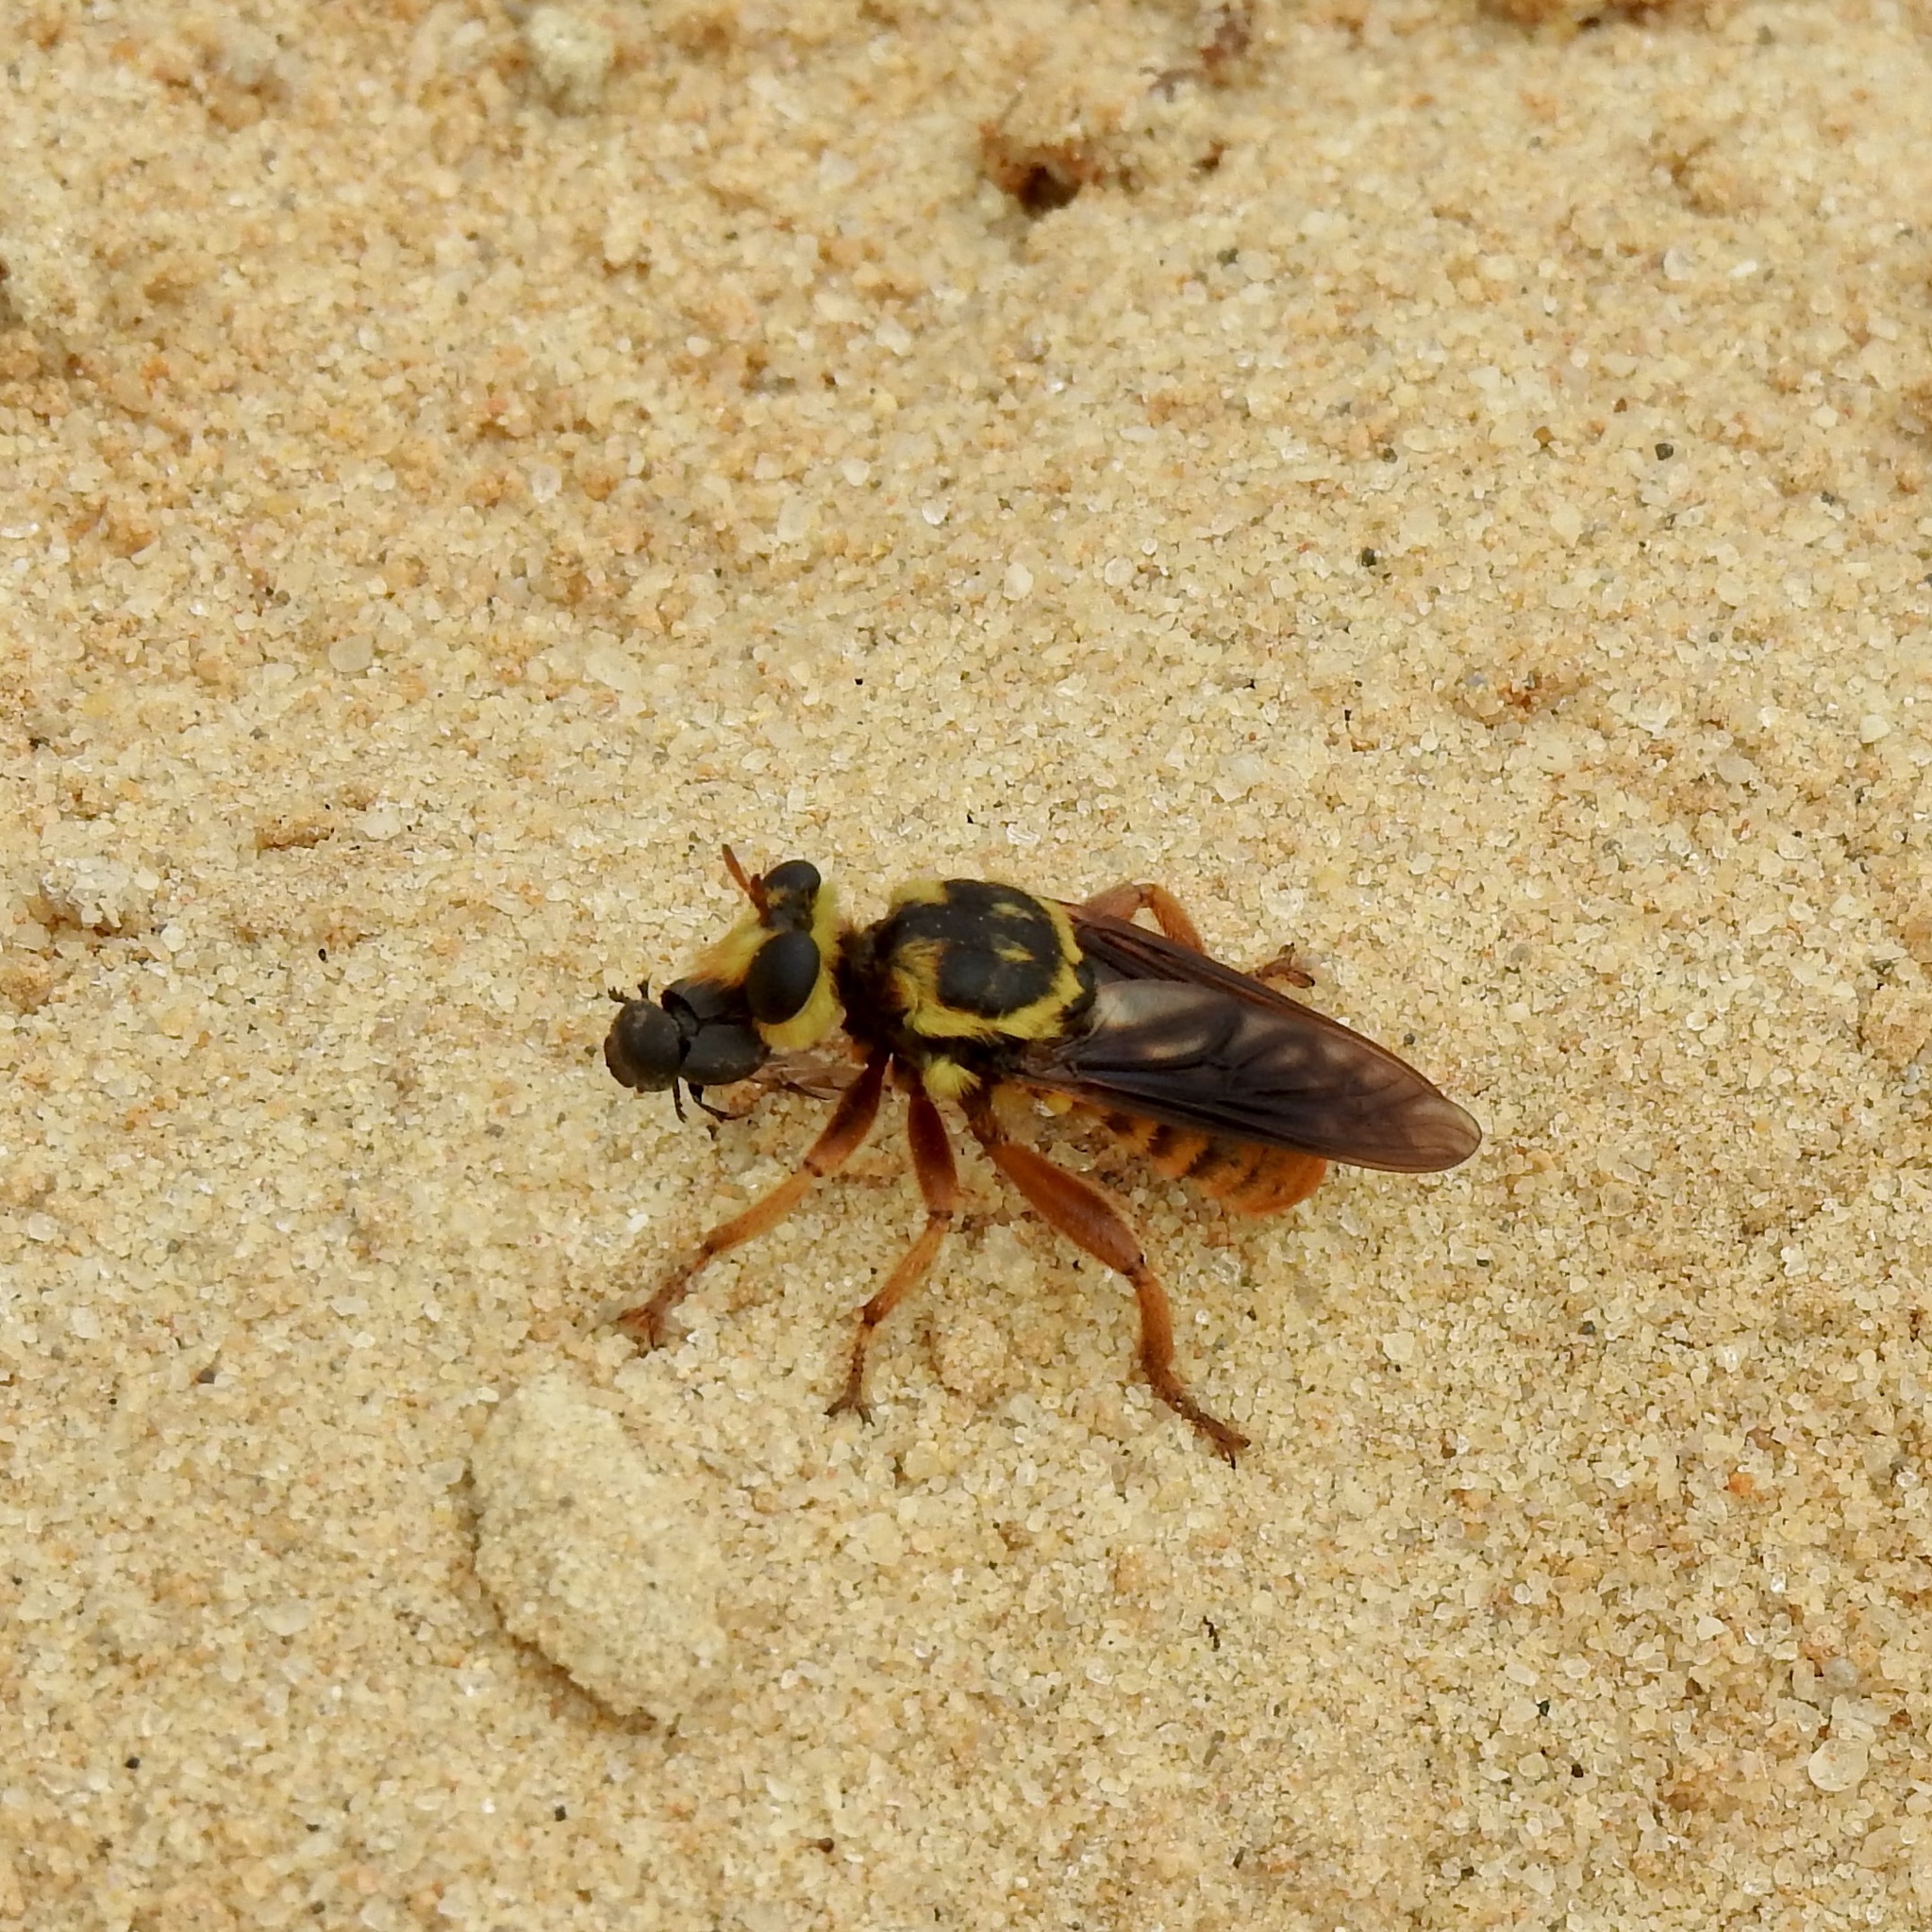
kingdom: Animalia
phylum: Arthropoda
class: Insecta
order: Diptera
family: Asilidae
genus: Laphria
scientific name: Laphria saffrana
